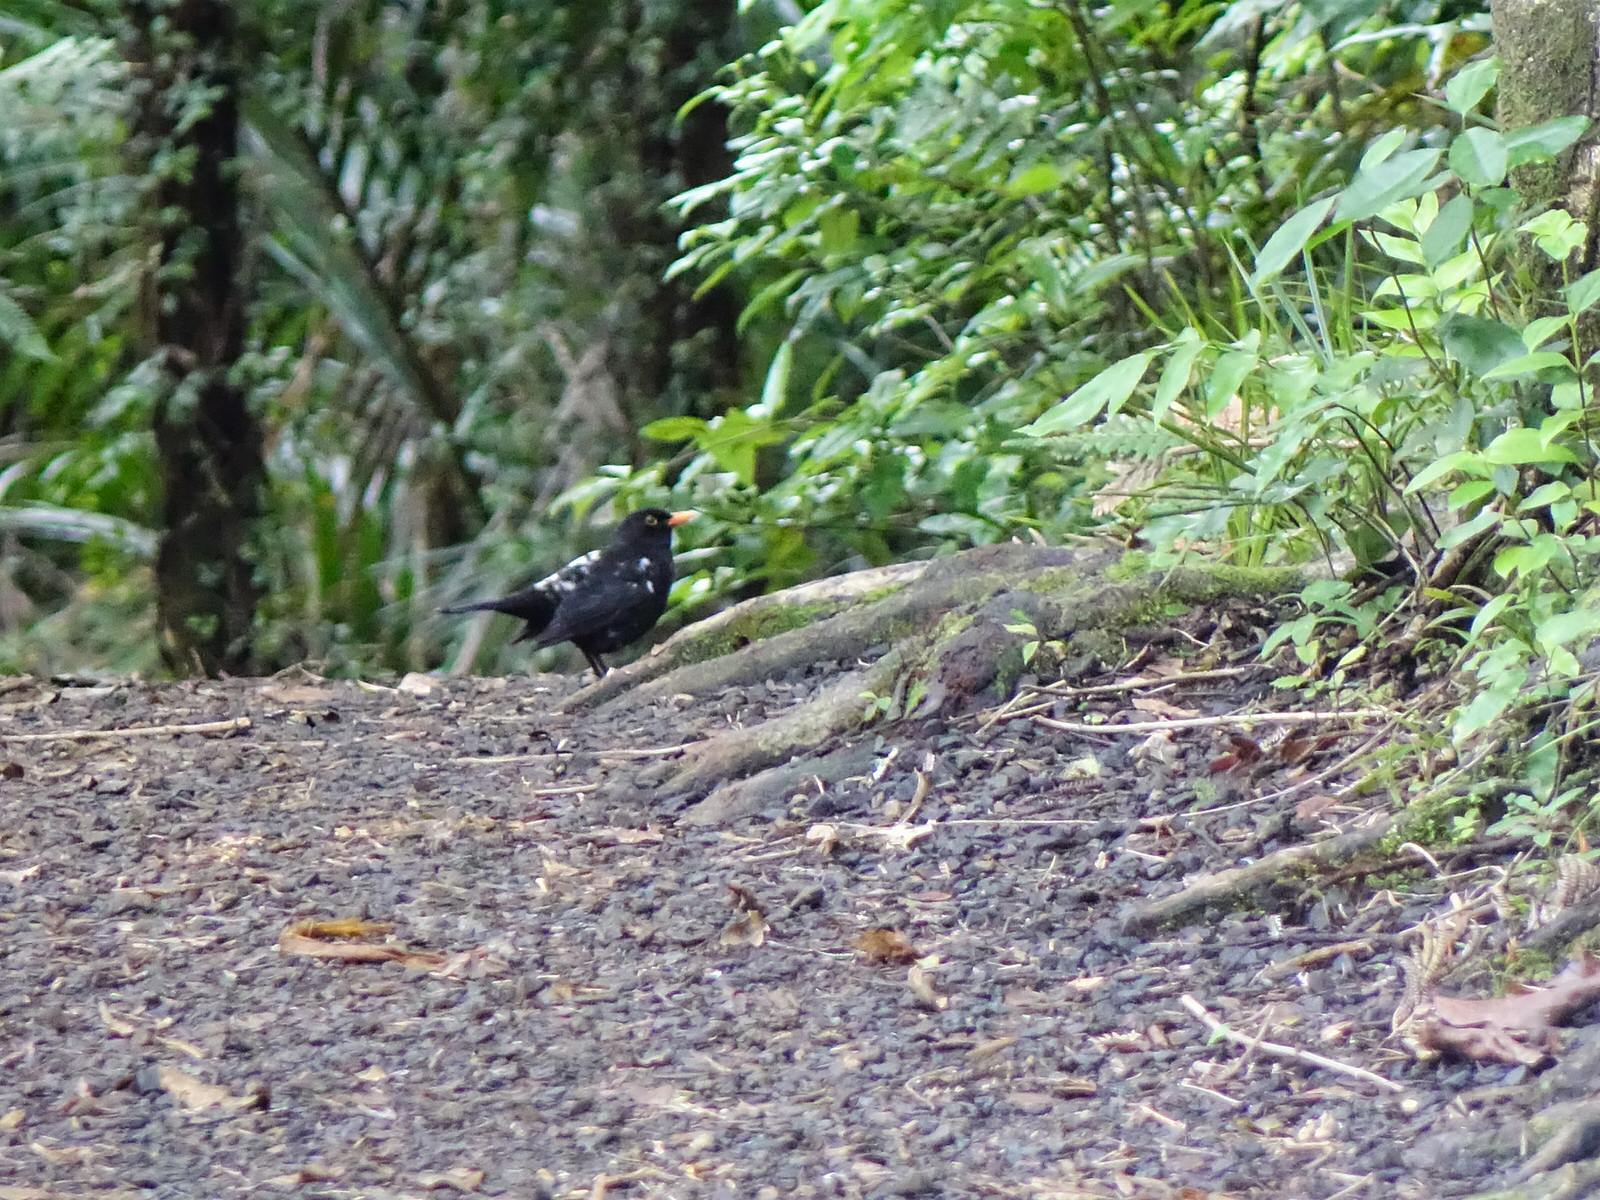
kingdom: Animalia
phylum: Chordata
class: Aves
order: Passeriformes
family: Turdidae
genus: Turdus
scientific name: Turdus merula
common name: Common blackbird
